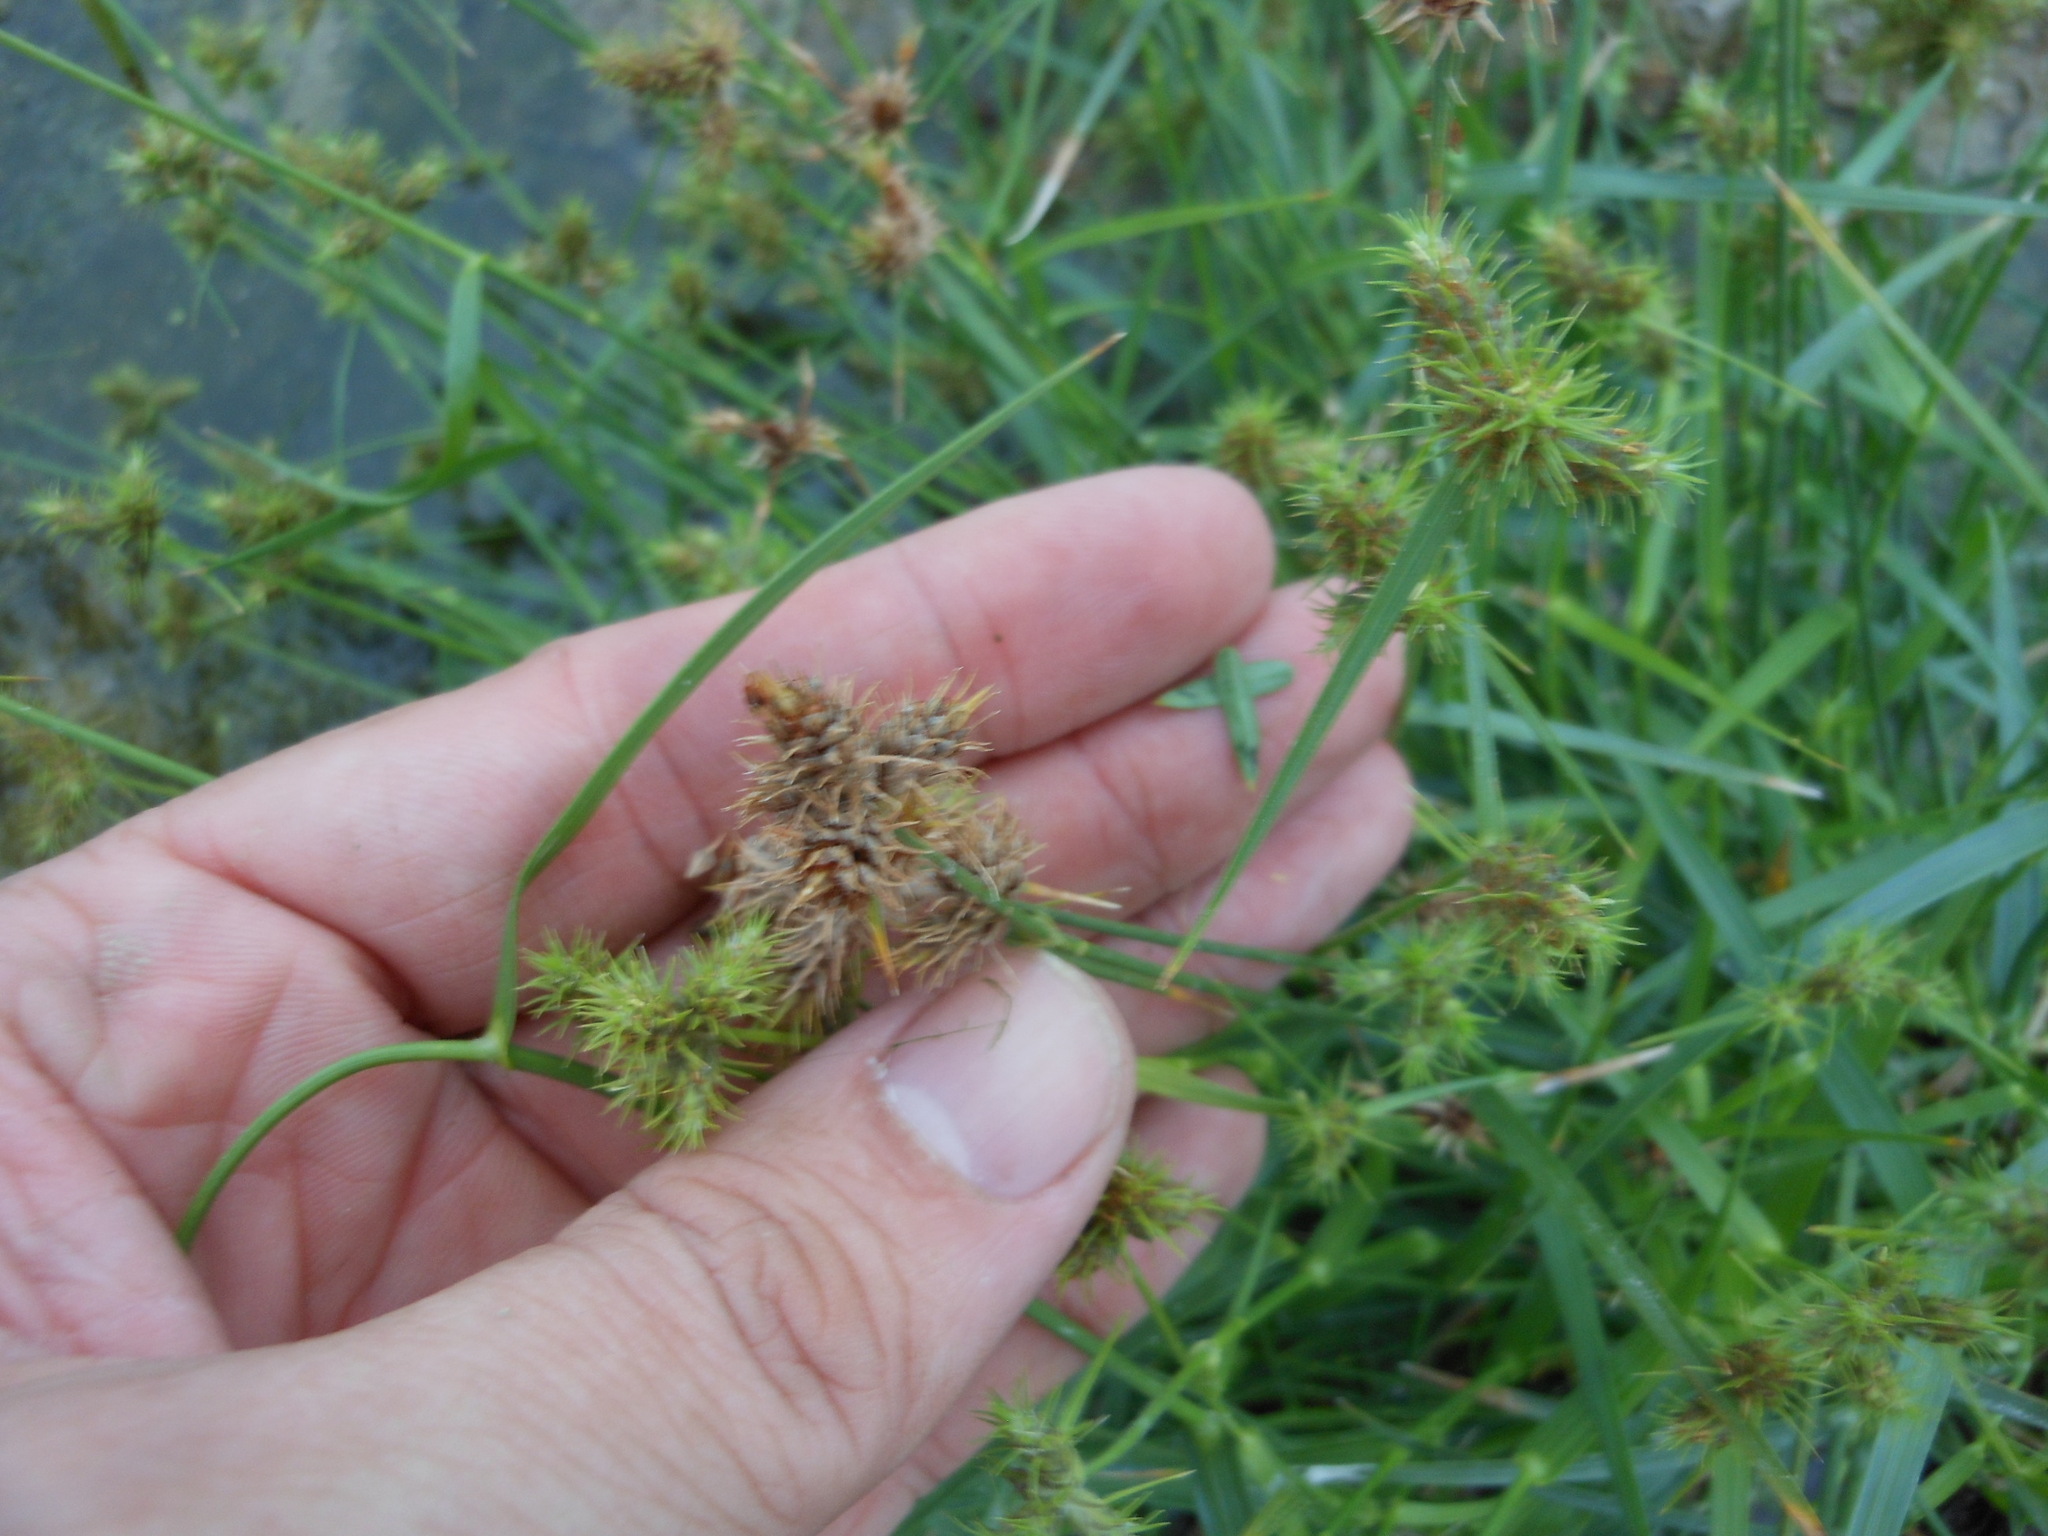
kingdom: Plantae
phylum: Tracheophyta
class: Liliopsida
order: Poales
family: Cyperaceae
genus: Fuirena
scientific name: Fuirena simplex
